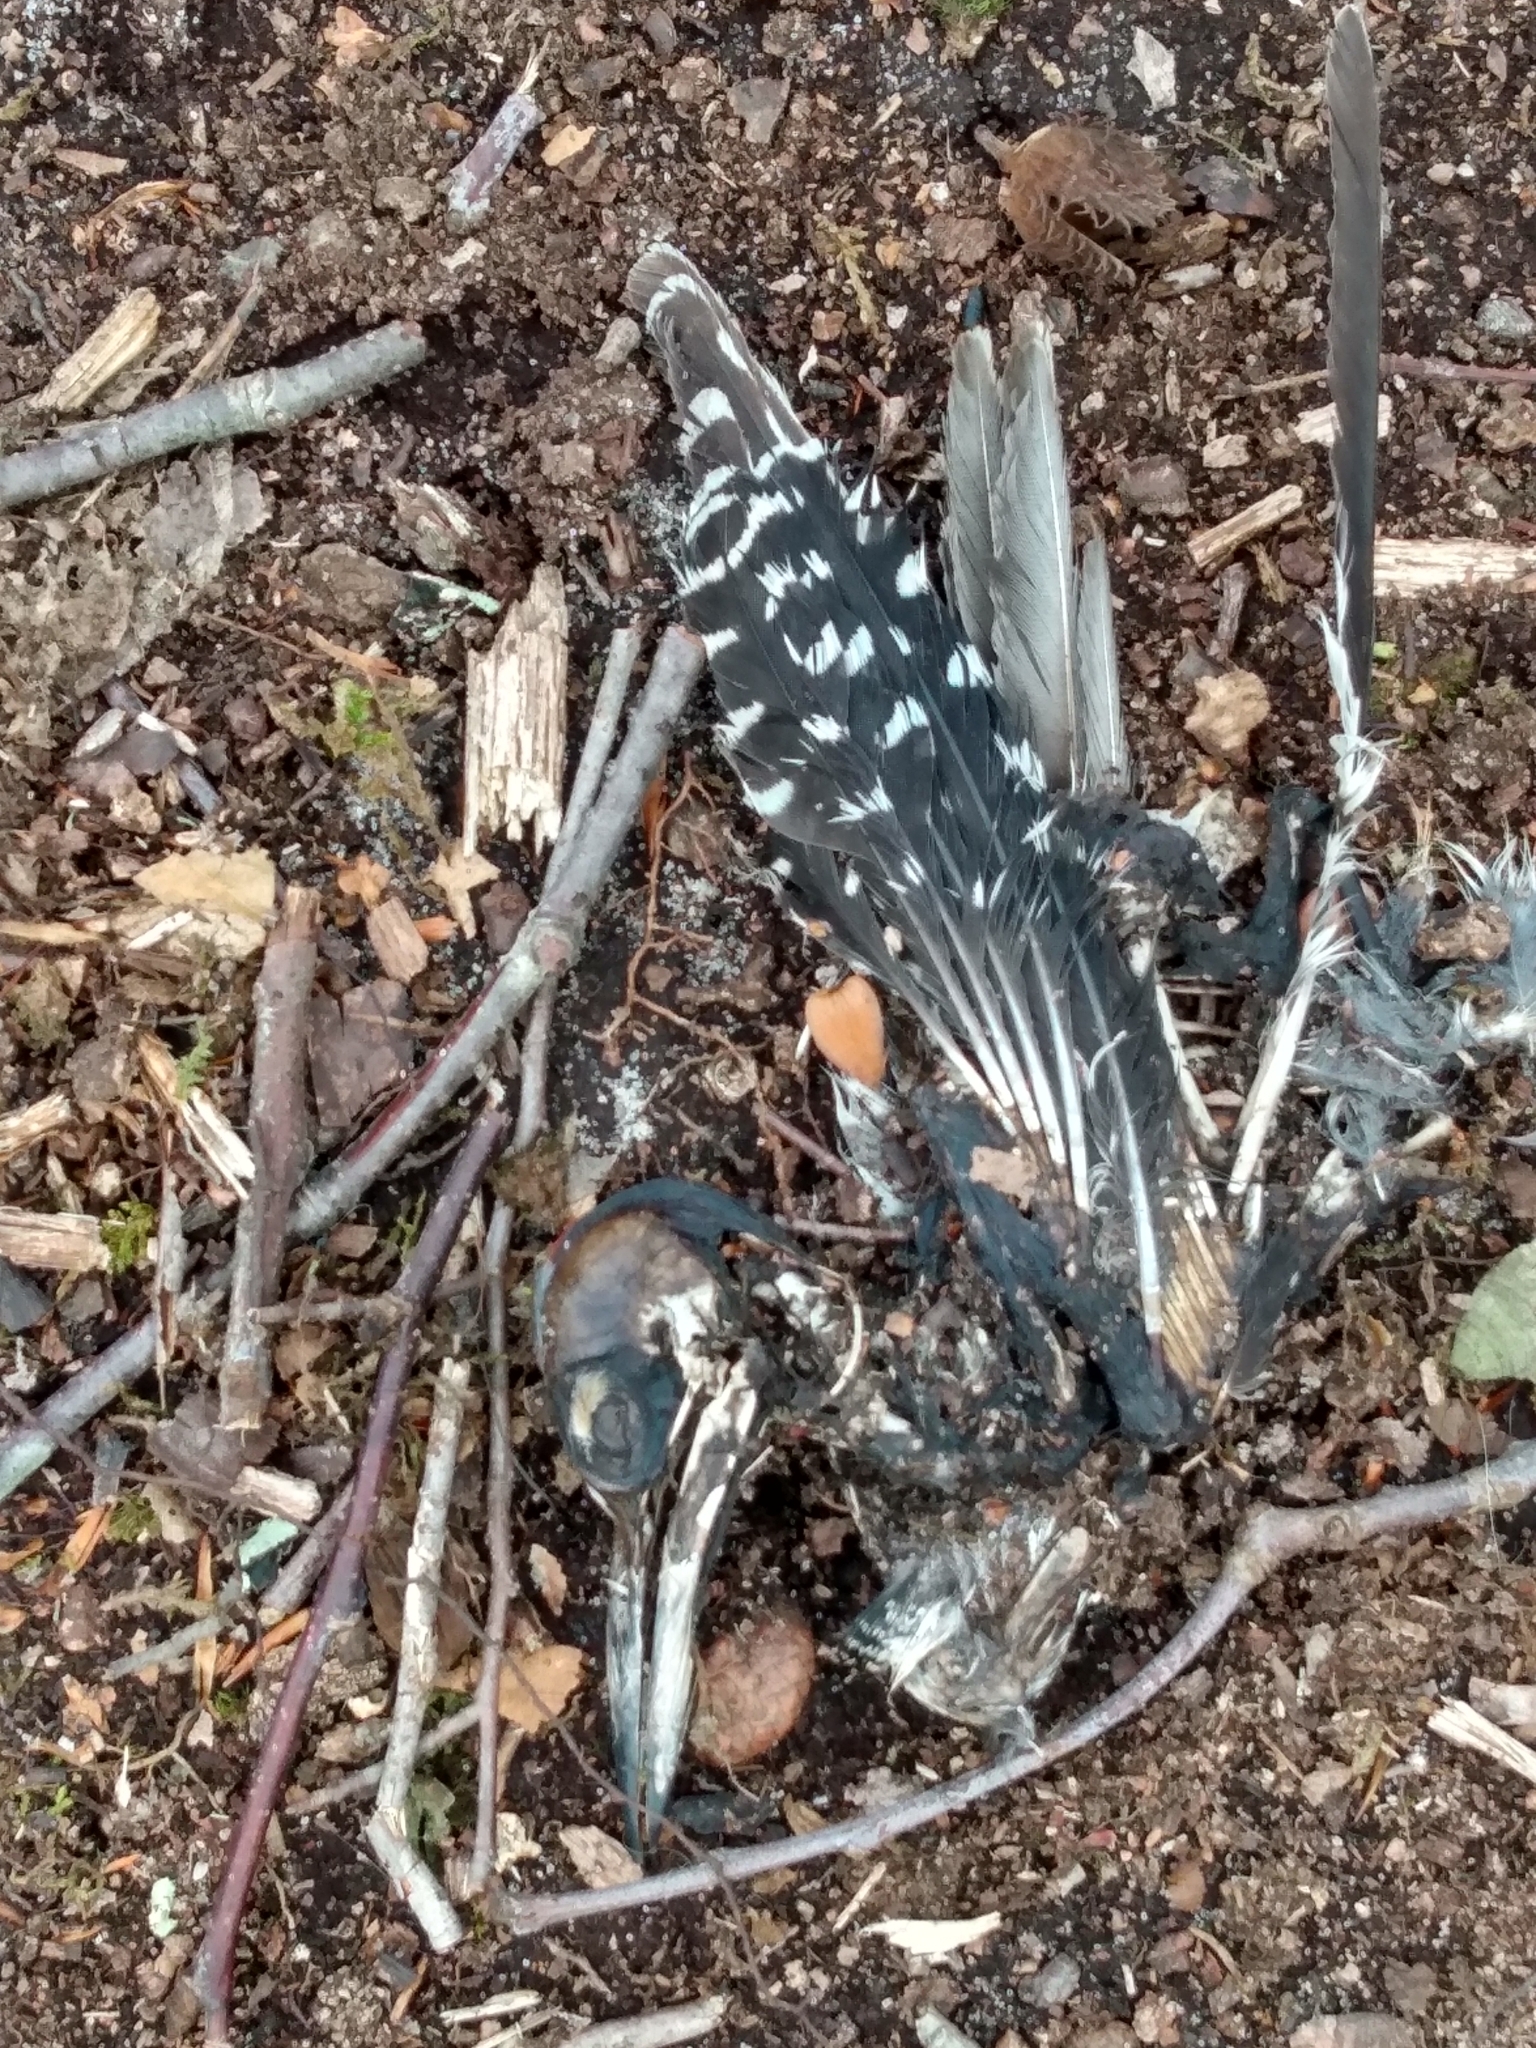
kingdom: Animalia
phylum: Chordata
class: Aves
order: Piciformes
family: Picidae
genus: Melanerpes
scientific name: Melanerpes carolinus
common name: Red-bellied woodpecker
